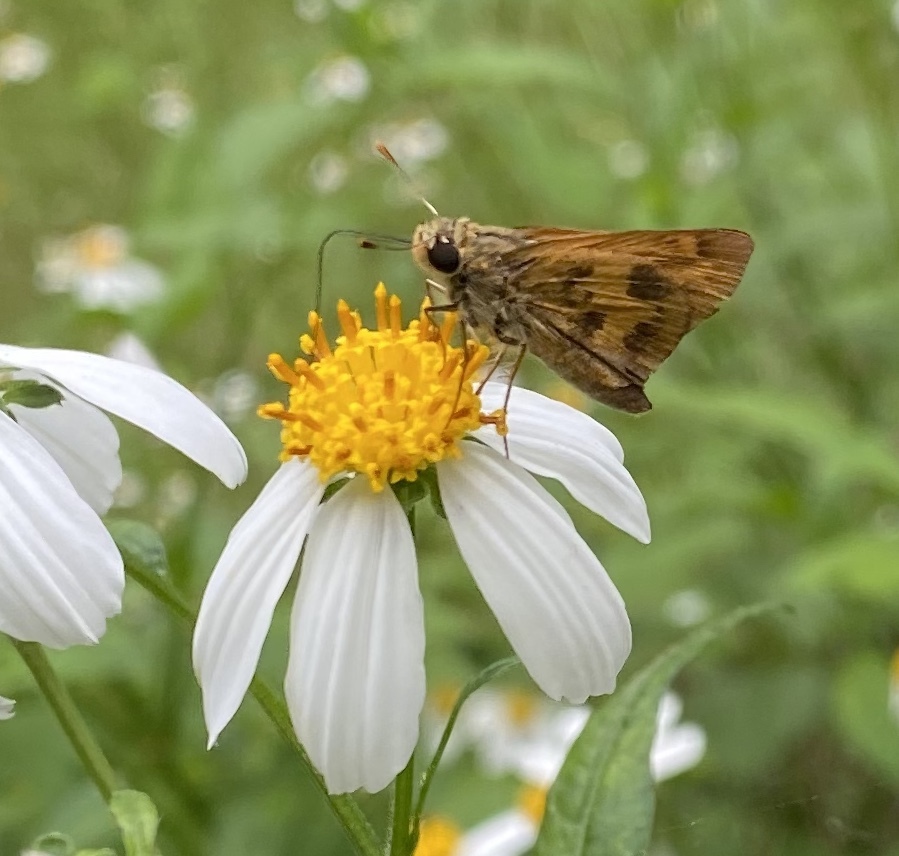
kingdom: Animalia
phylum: Arthropoda
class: Insecta
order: Lepidoptera
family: Hesperiidae
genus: Polites
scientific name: Polites vibex
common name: Whirlabout
